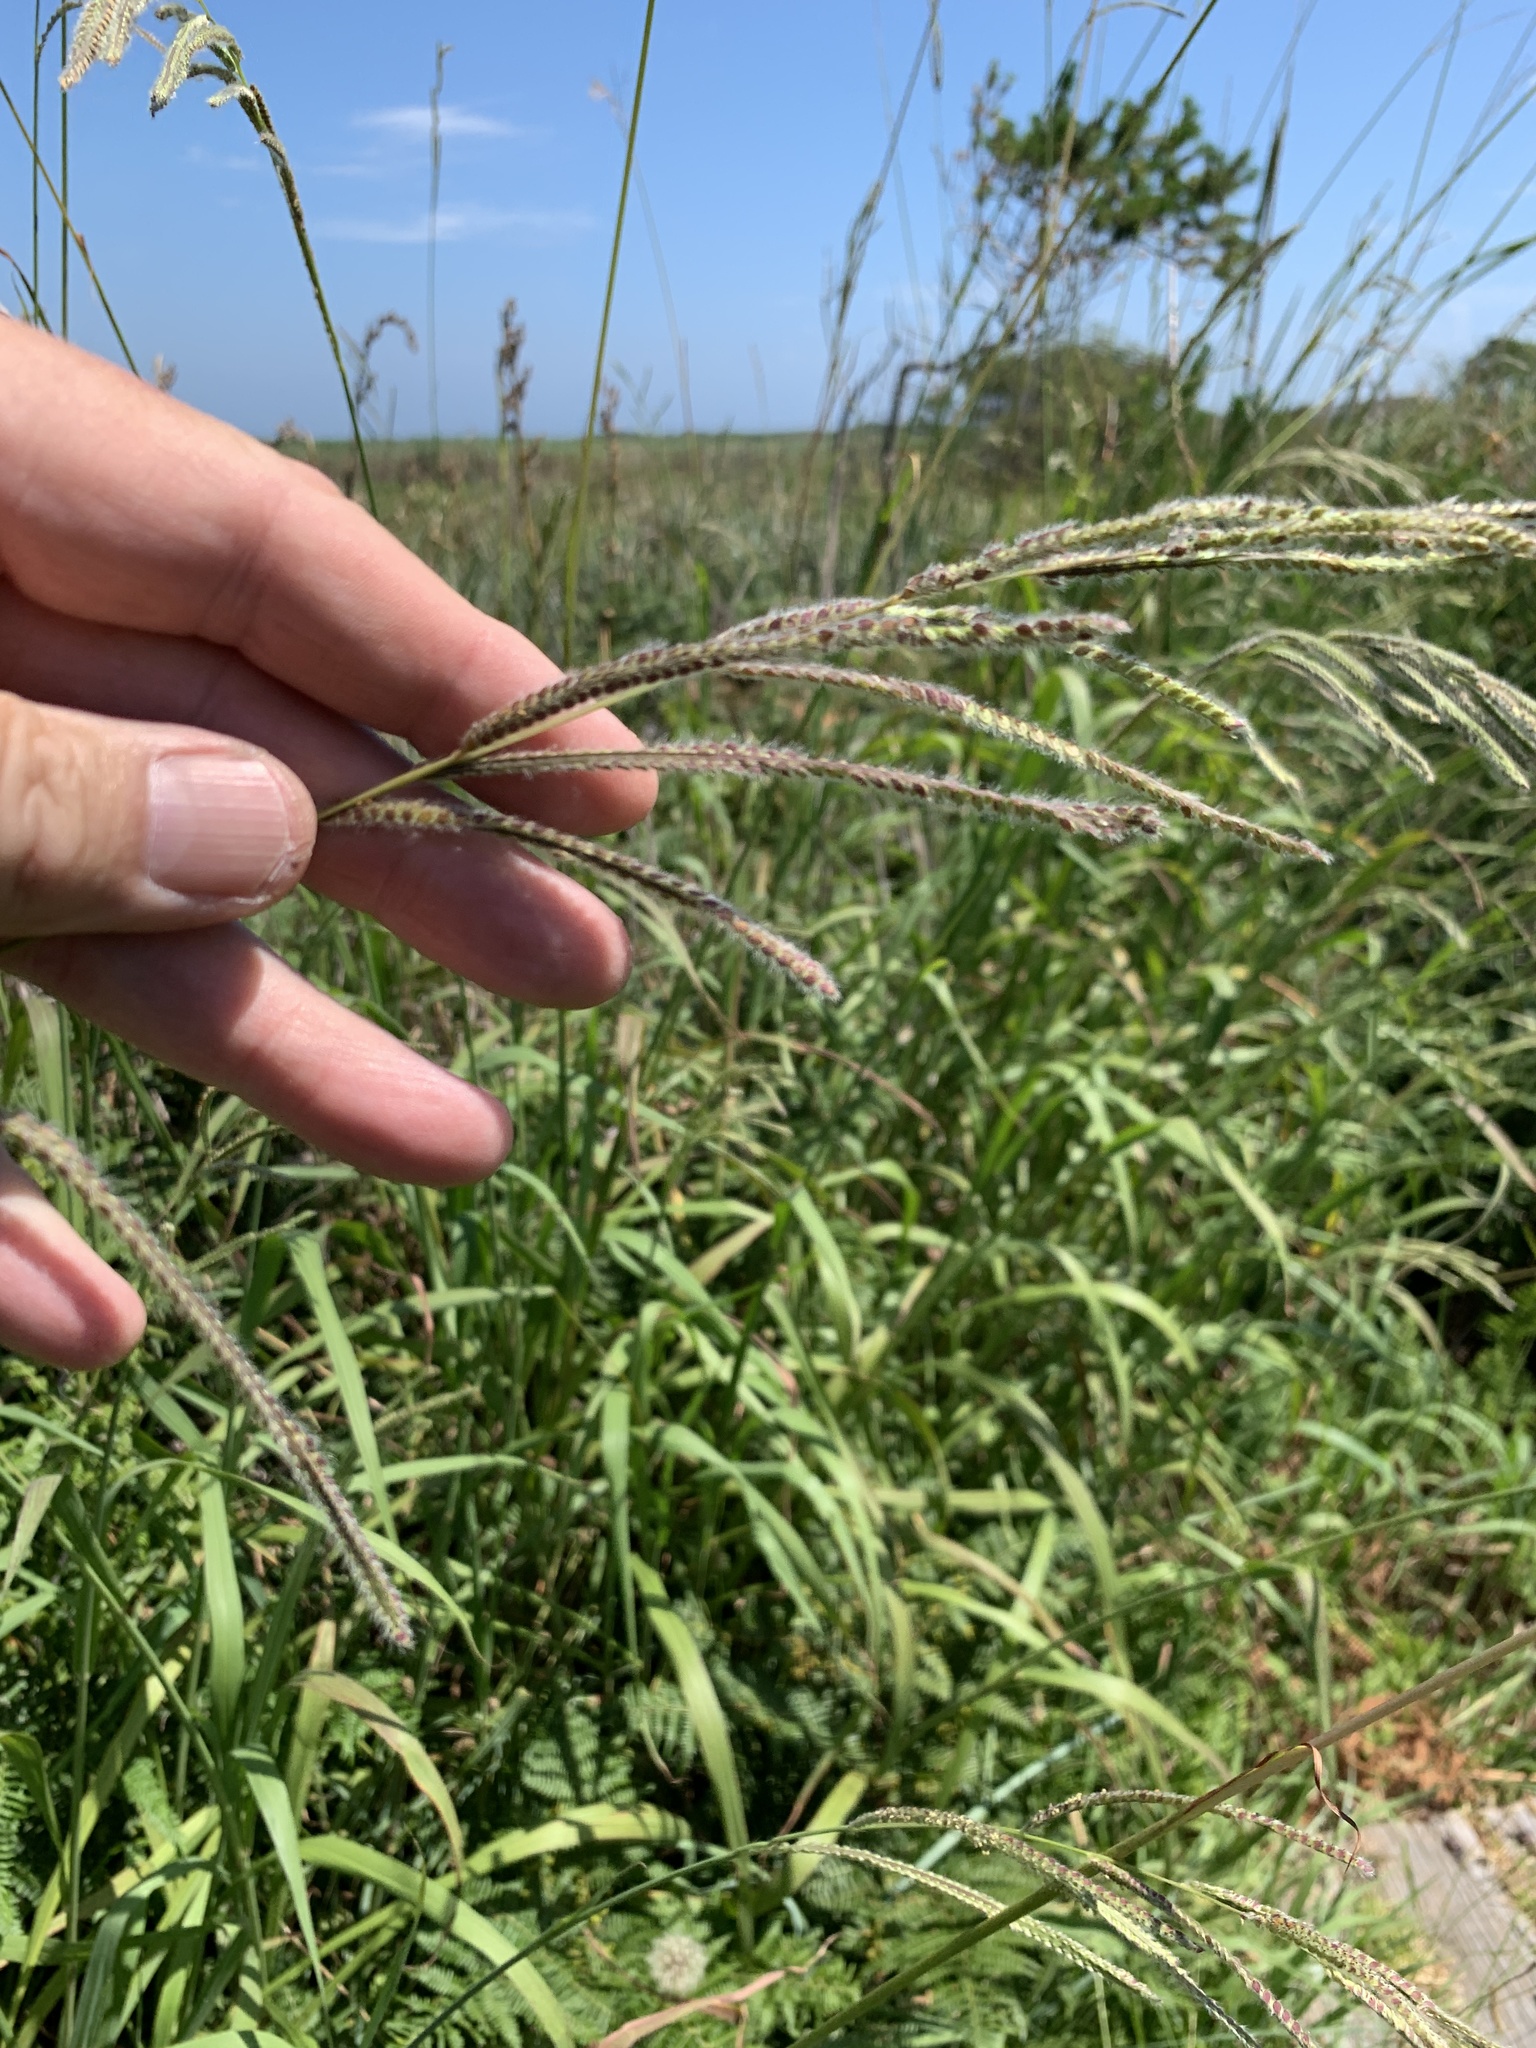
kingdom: Plantae
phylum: Tracheophyta
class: Liliopsida
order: Poales
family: Poaceae
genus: Paspalum
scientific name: Paspalum urvillei
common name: Vasey's grass
